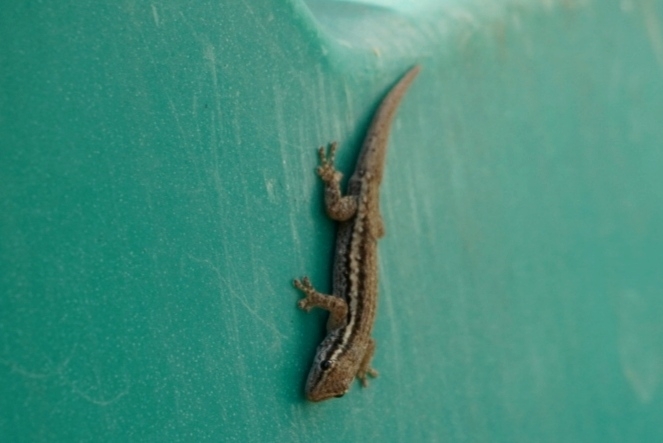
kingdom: Animalia
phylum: Chordata
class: Squamata
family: Gekkonidae
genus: Lygodactylus
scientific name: Lygodactylus capensis
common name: Cape dwarf gecko
